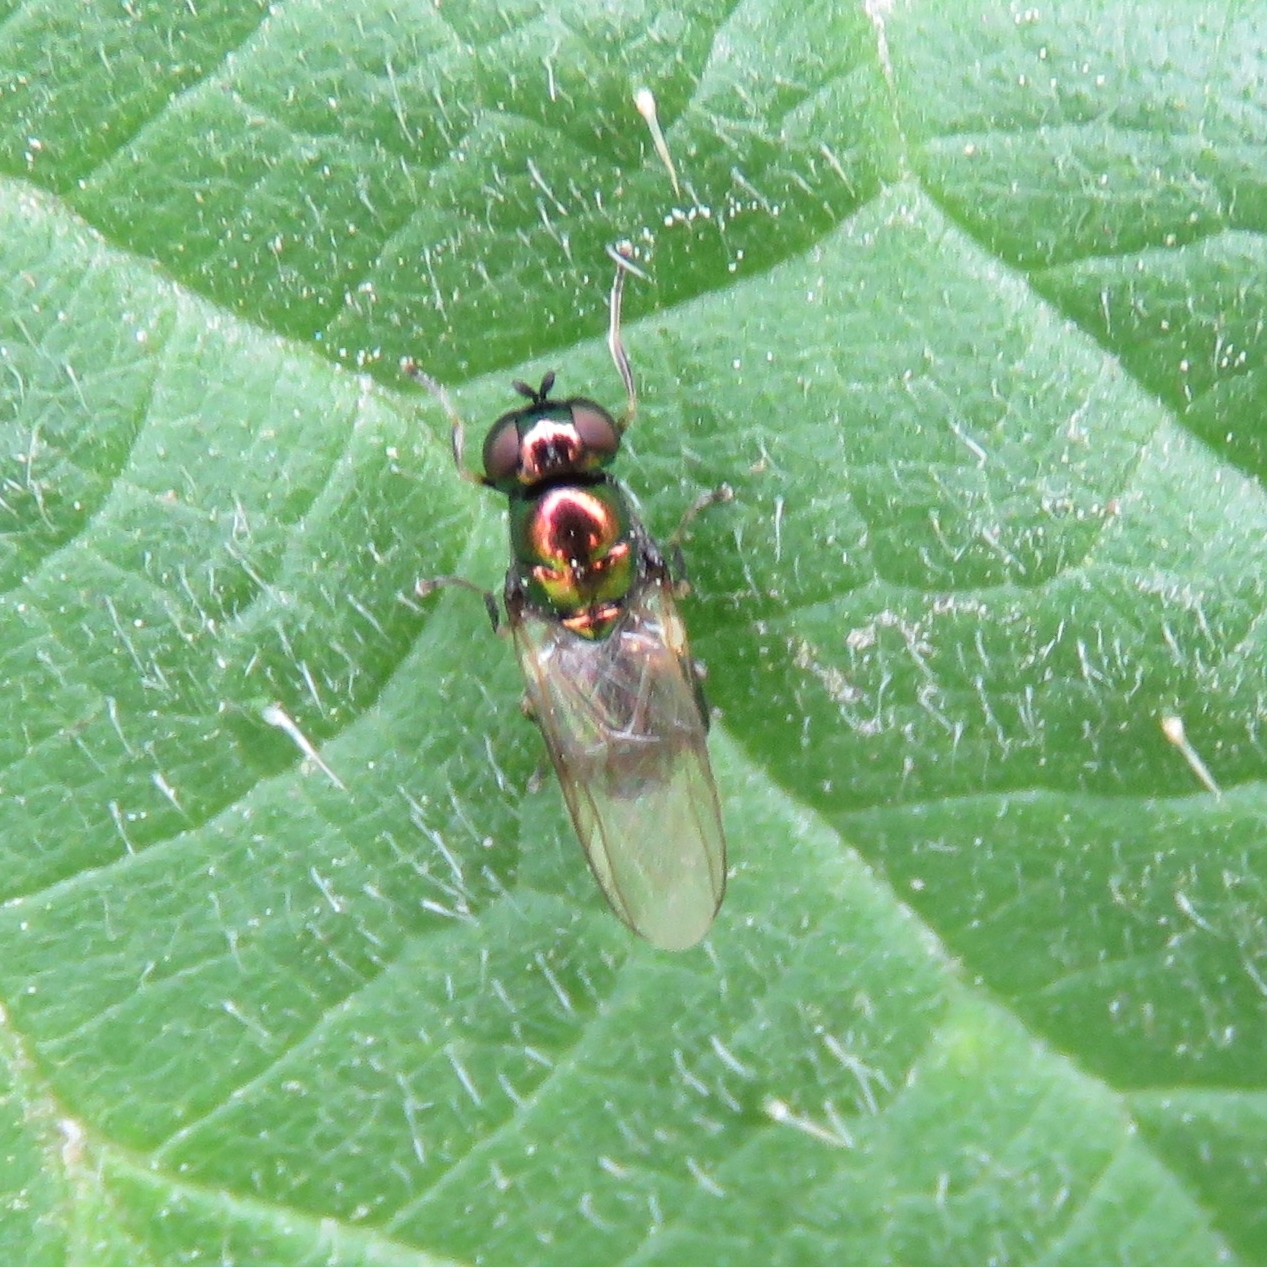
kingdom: Animalia
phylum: Arthropoda
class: Insecta
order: Diptera
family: Stratiomyidae
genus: Microchrysa
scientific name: Microchrysa polita
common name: Black-horned gem
